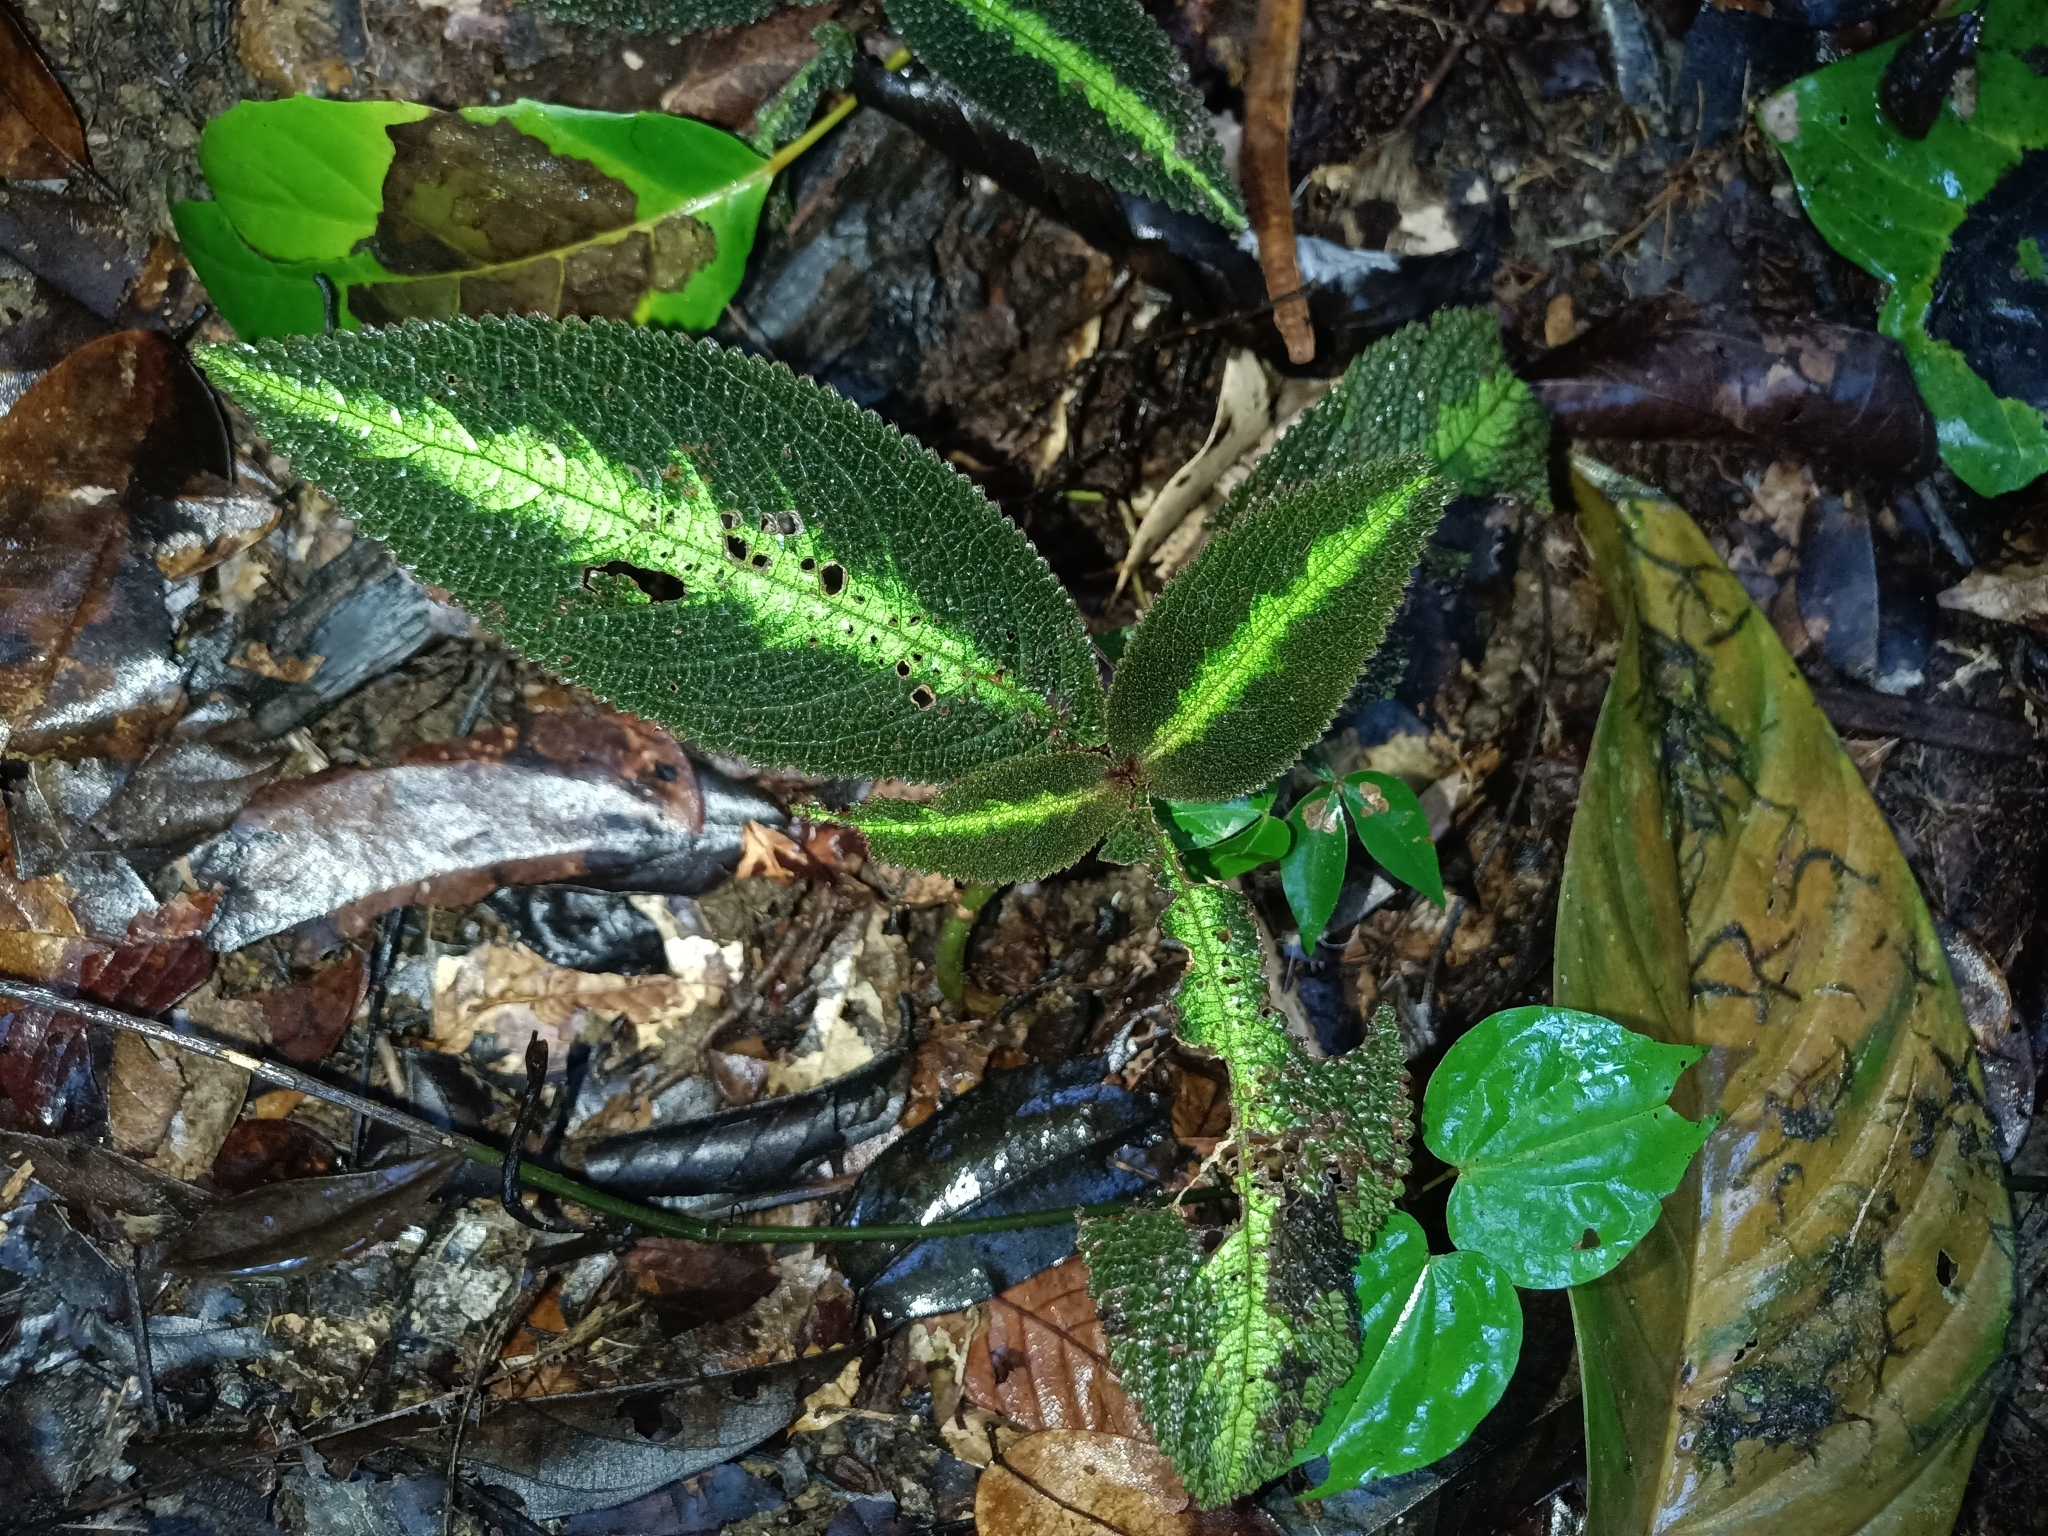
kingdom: Plantae
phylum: Tracheophyta
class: Magnoliopsida
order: Lamiales
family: Gesneriaceae
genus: Centrosolenia
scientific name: Centrosolenia picta
